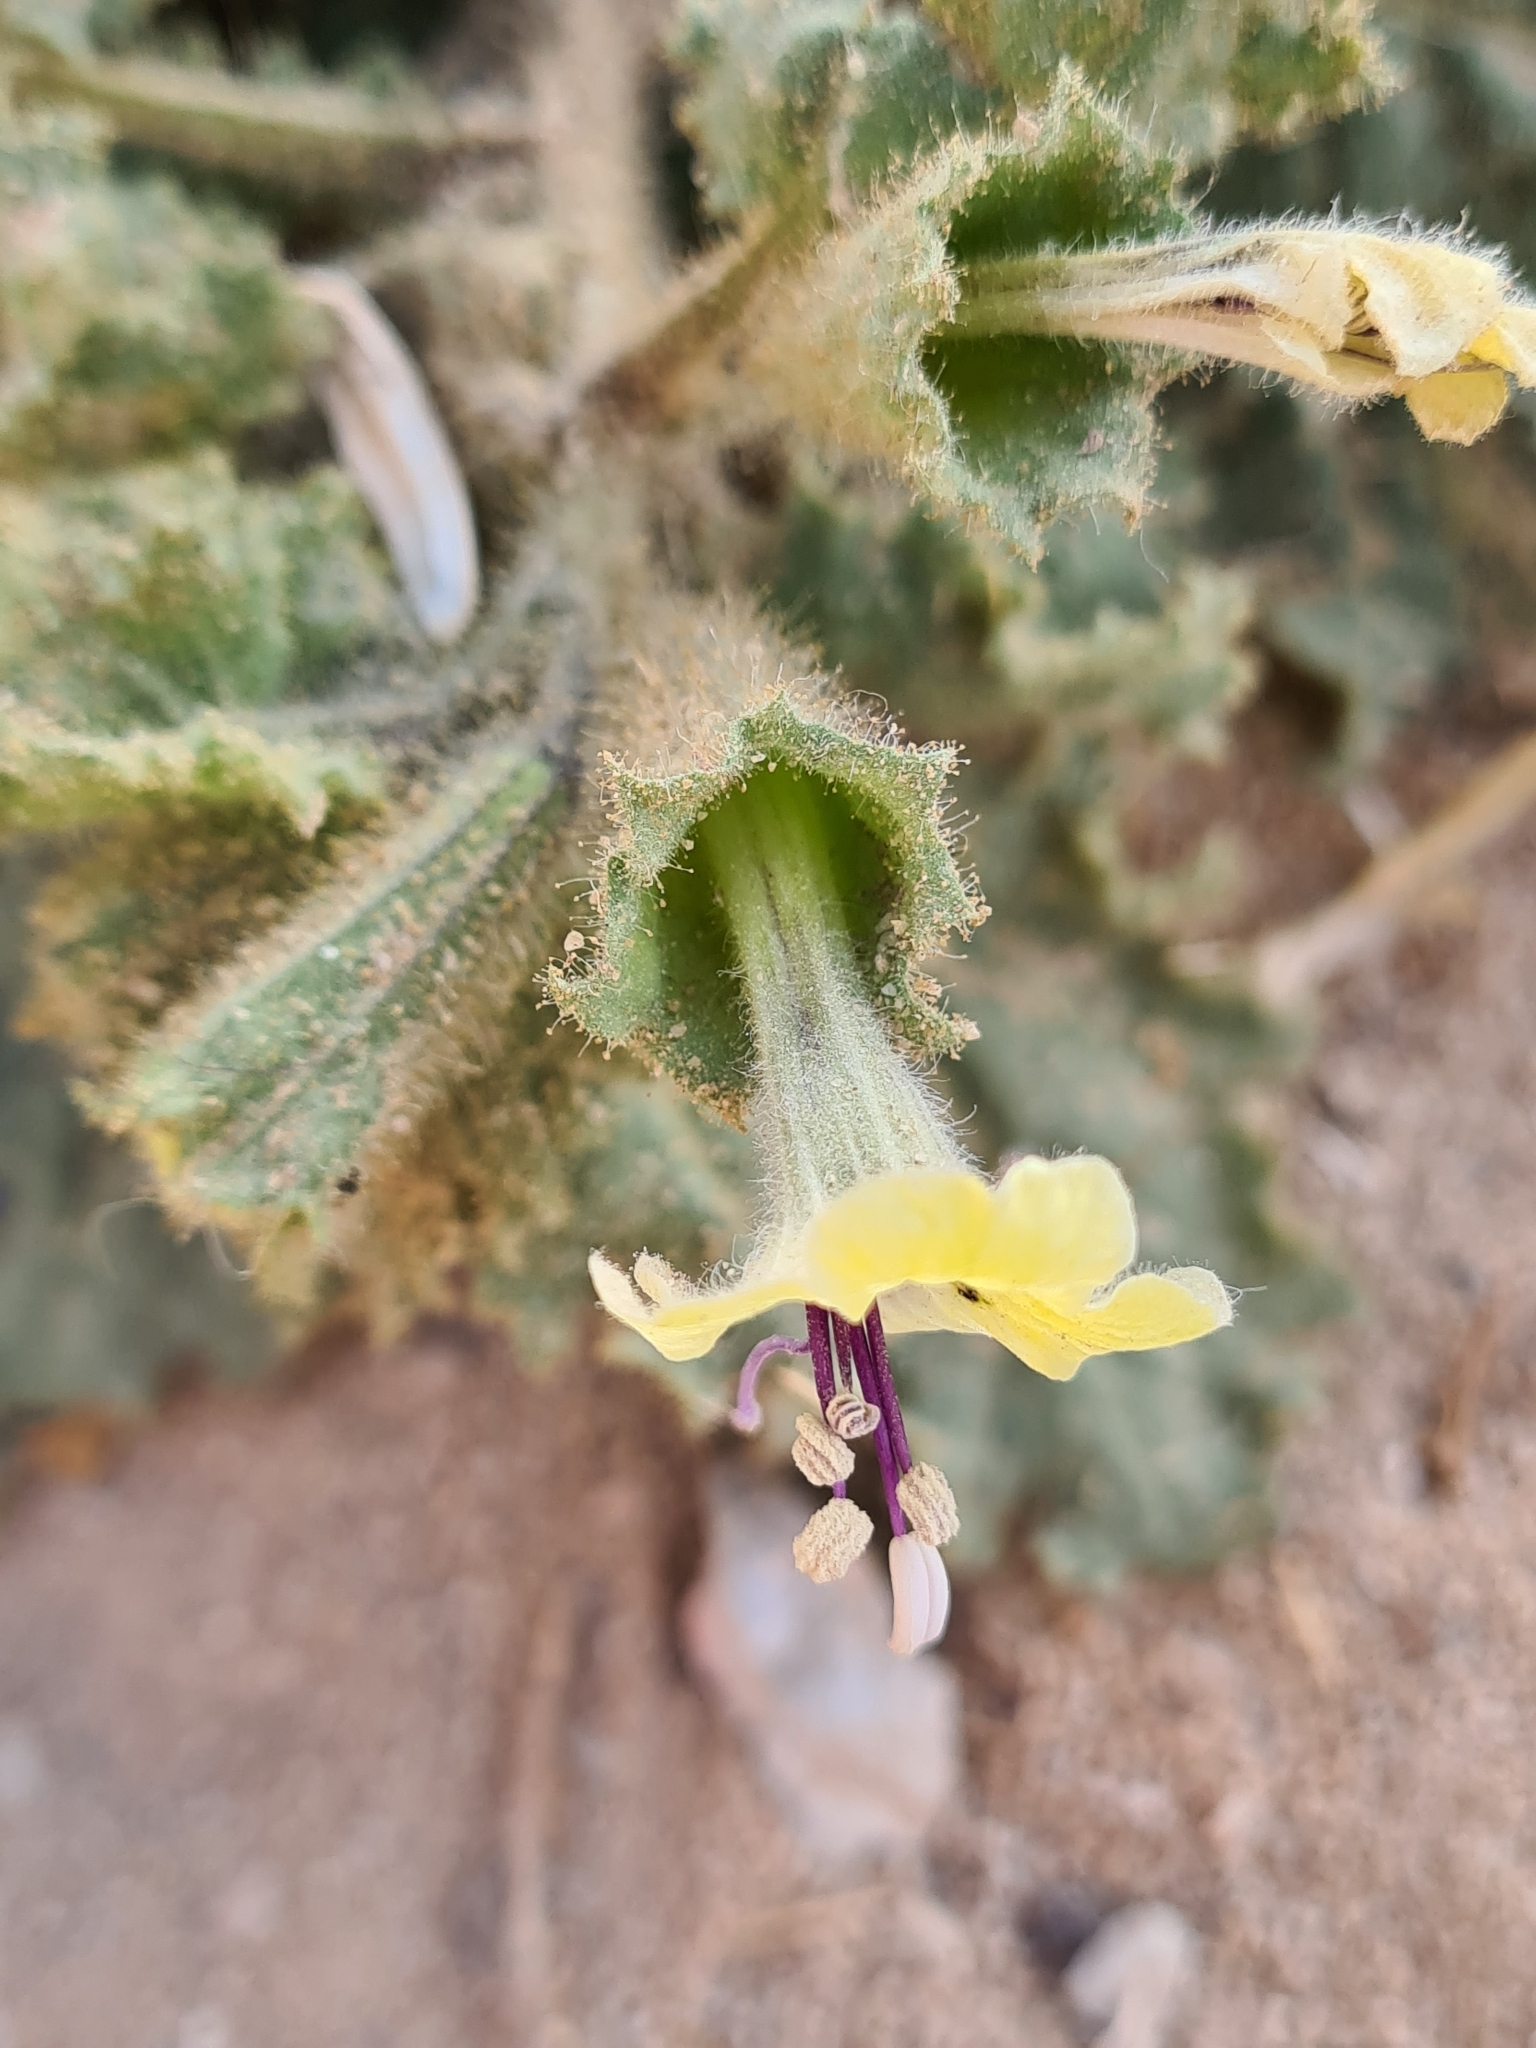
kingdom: Plantae
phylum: Tracheophyta
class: Magnoliopsida
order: Solanales
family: Solanaceae
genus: Hyoscyamus
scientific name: Hyoscyamus aureus
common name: Golden henbane
